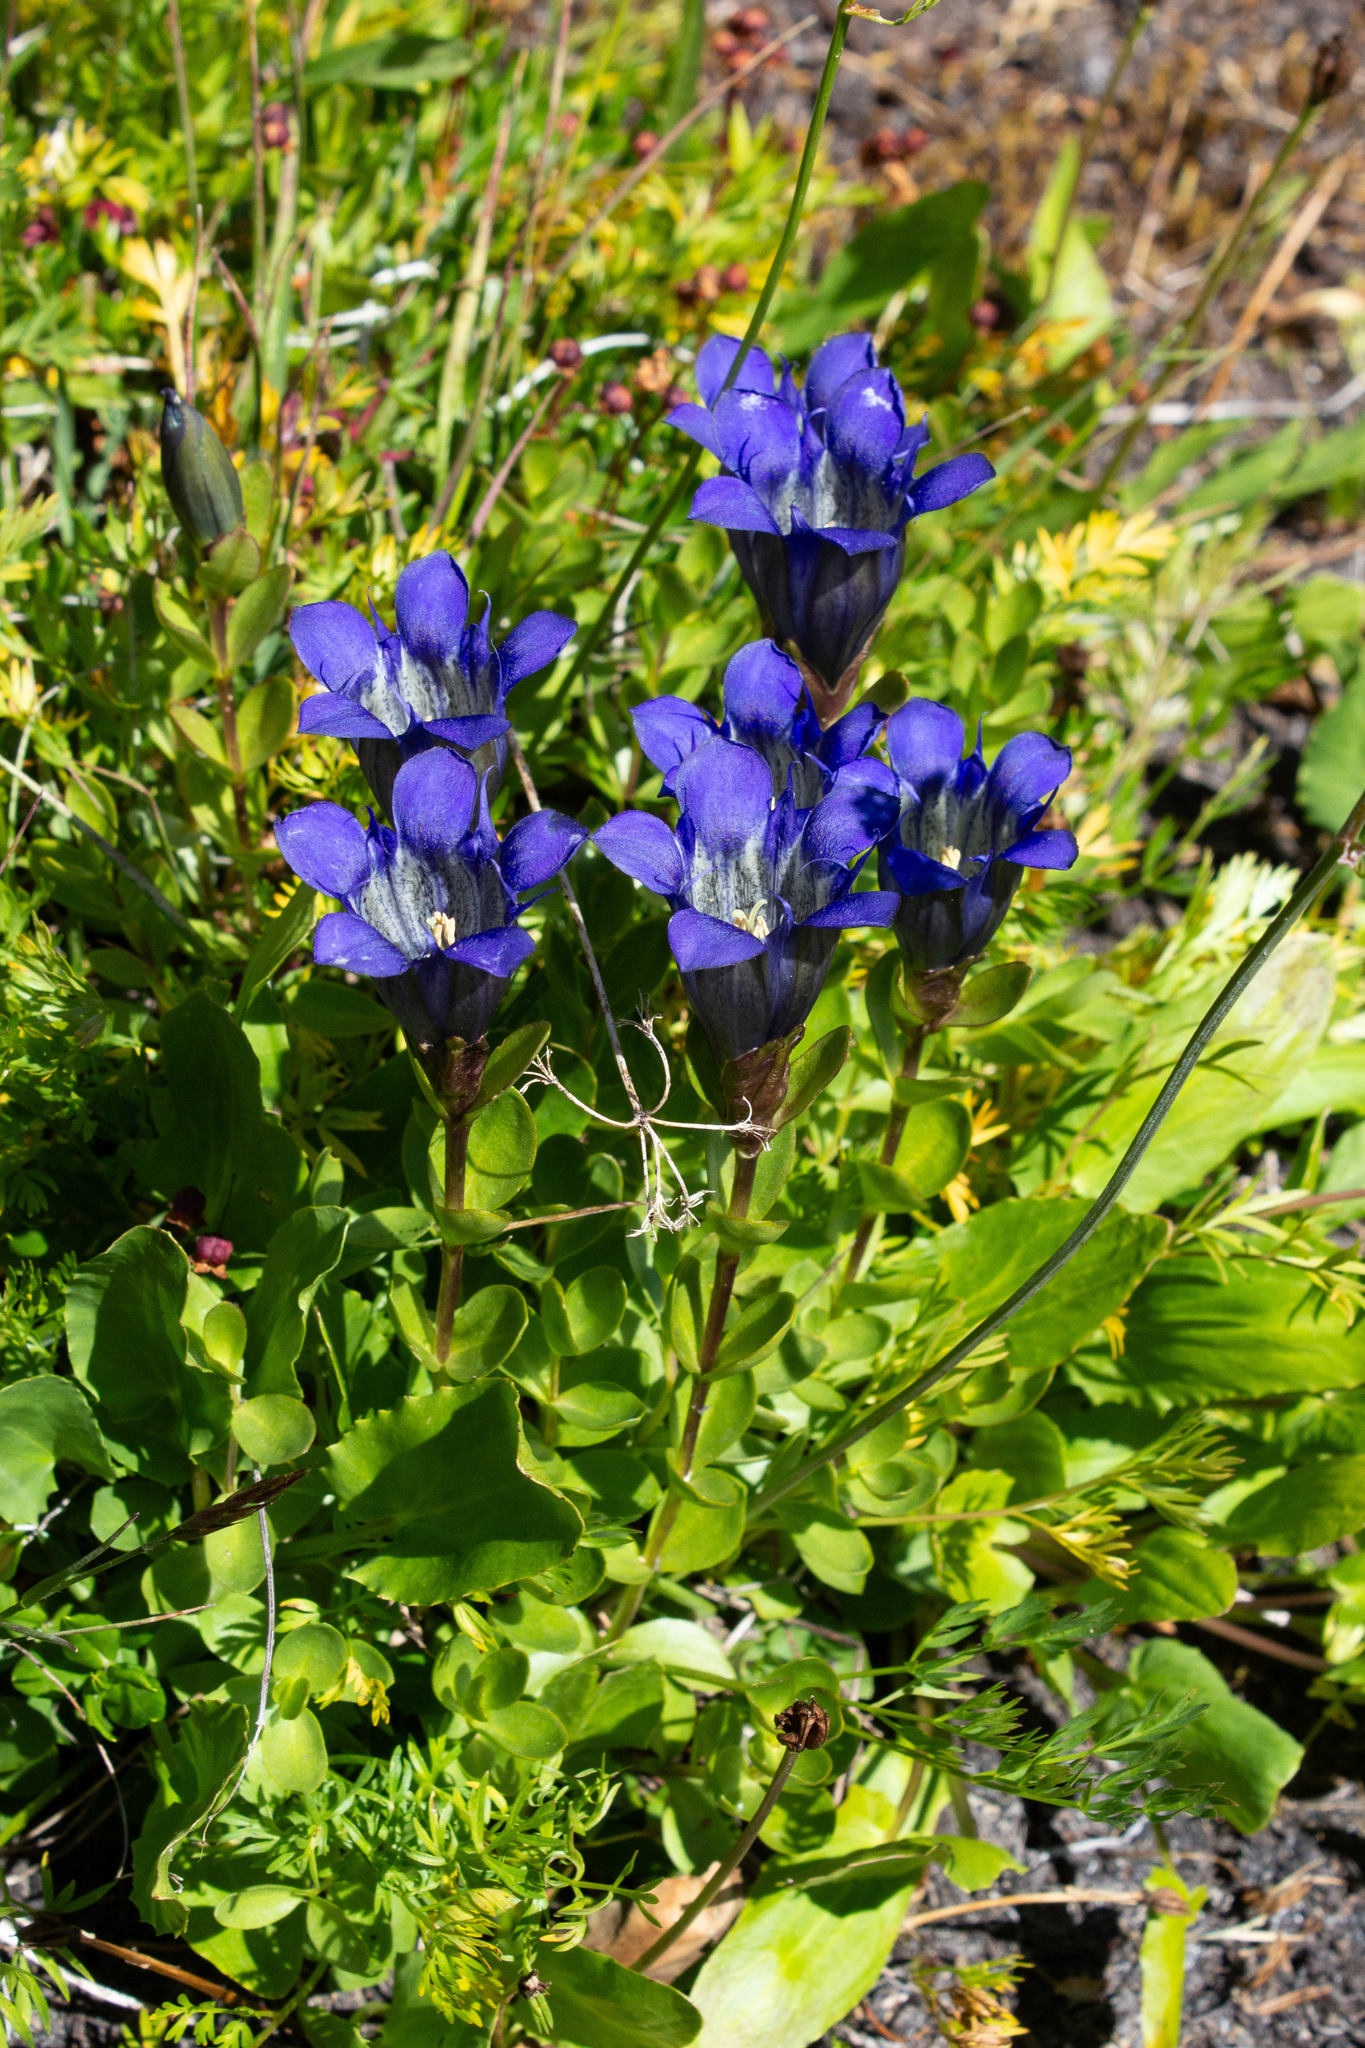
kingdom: Plantae
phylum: Tracheophyta
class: Magnoliopsida
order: Gentianales
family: Gentianaceae
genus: Gentiana
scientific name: Gentiana calycosa
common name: Rainier pleated gentian
